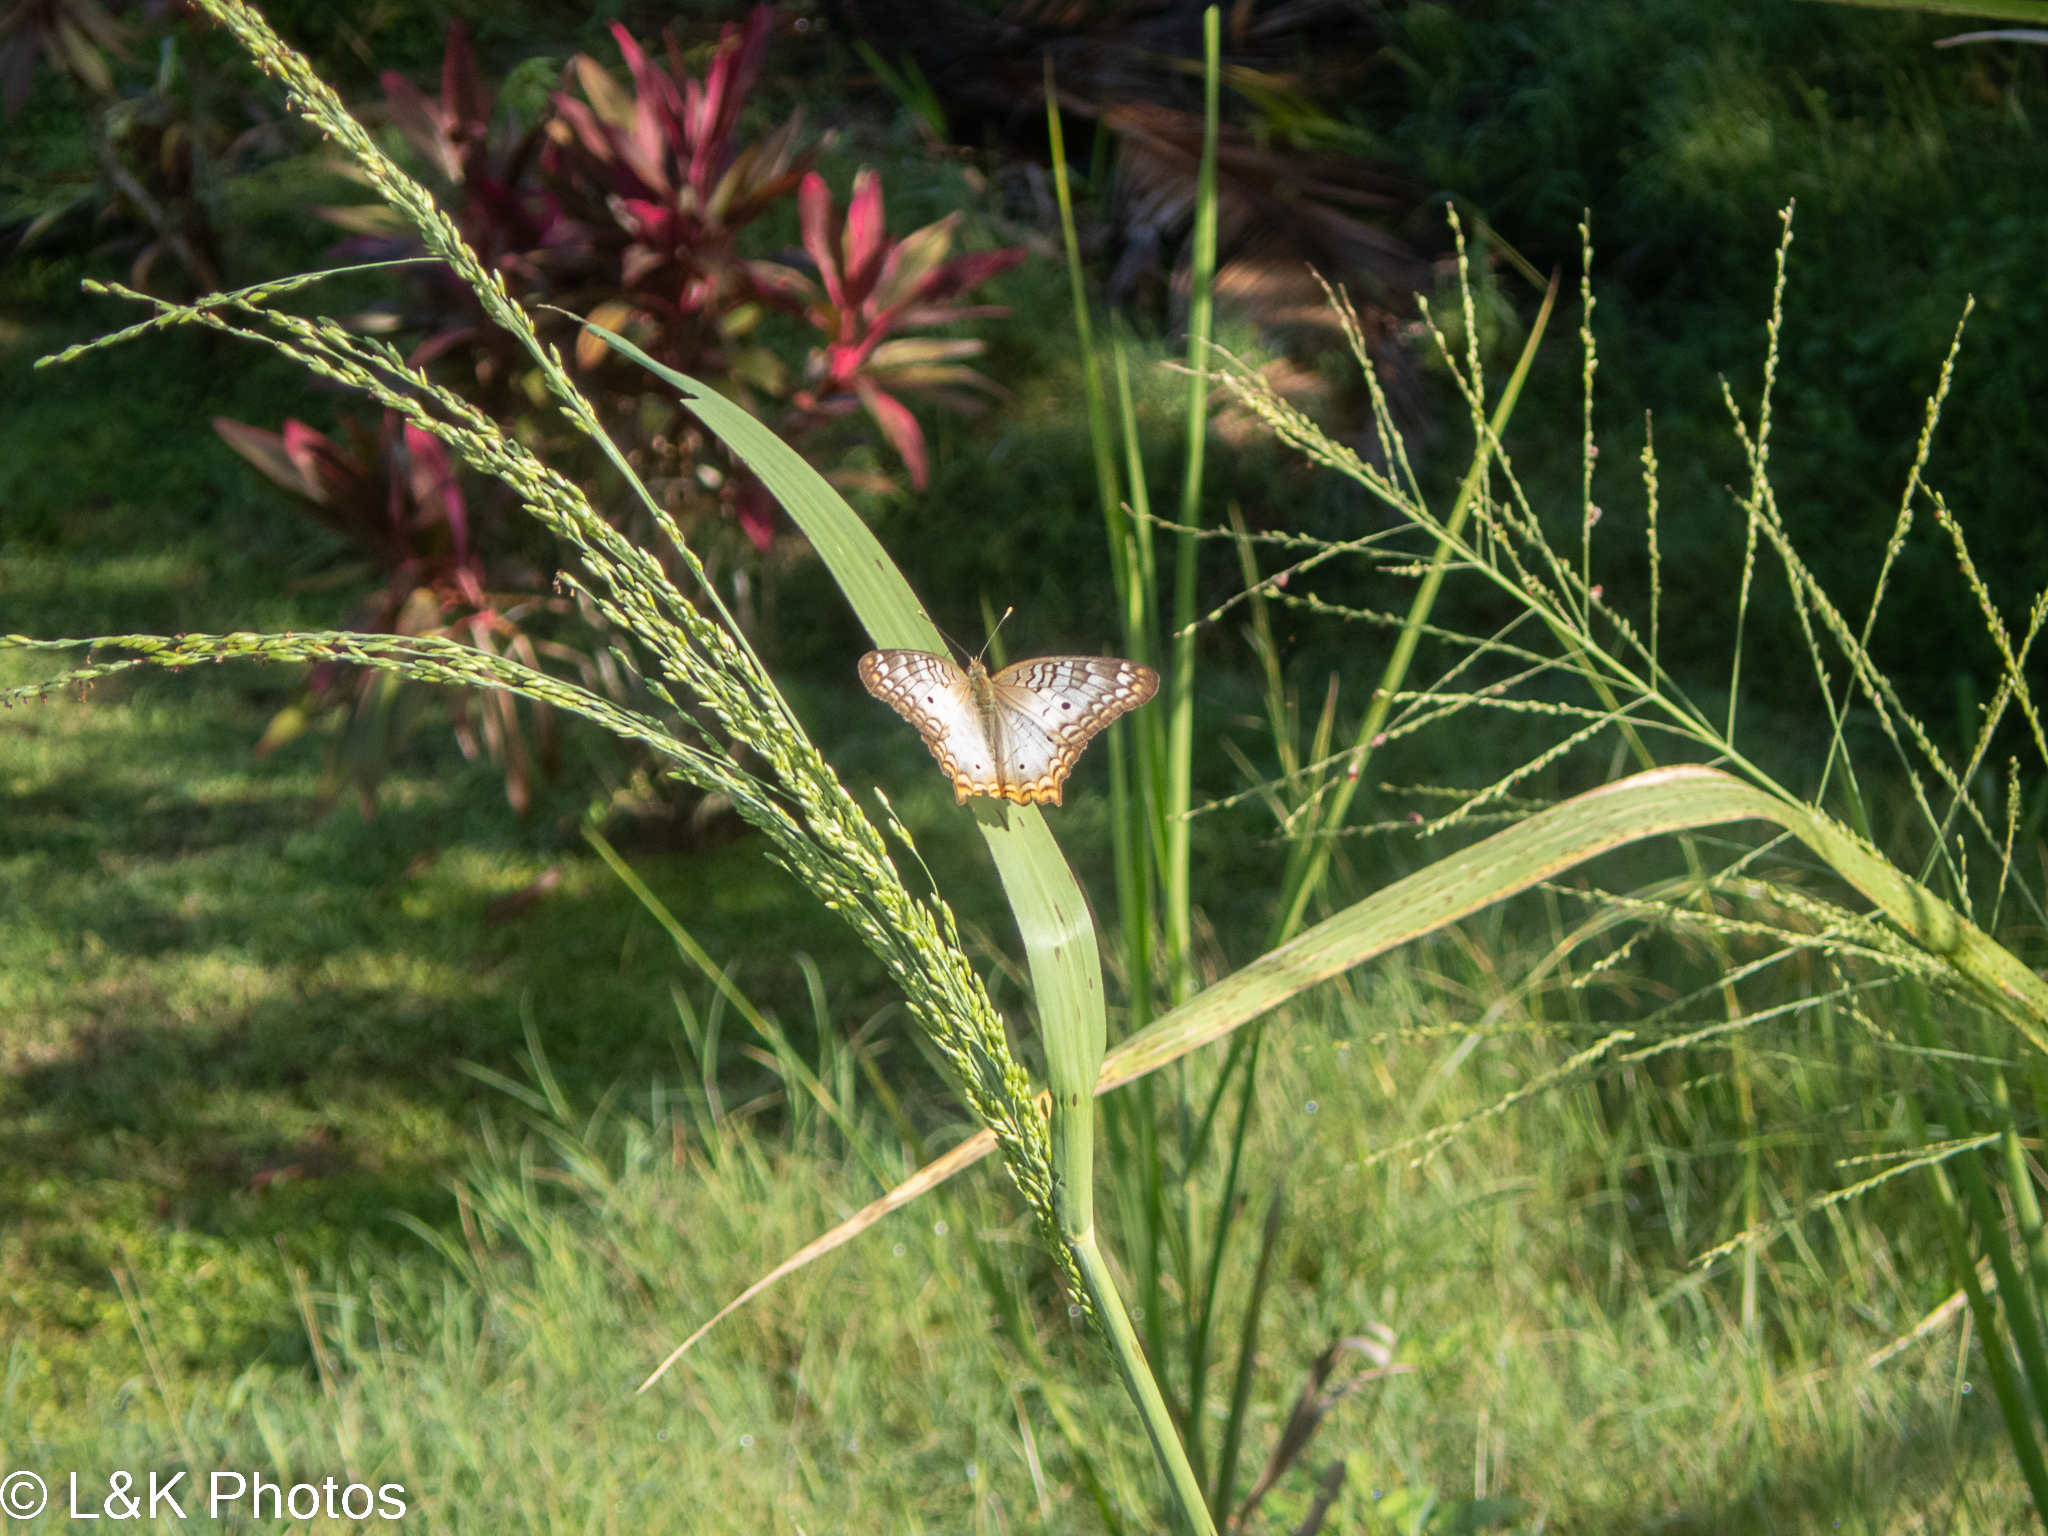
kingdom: Animalia
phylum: Arthropoda
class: Insecta
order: Lepidoptera
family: Nymphalidae
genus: Anartia
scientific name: Anartia jatrophae
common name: White peacock
